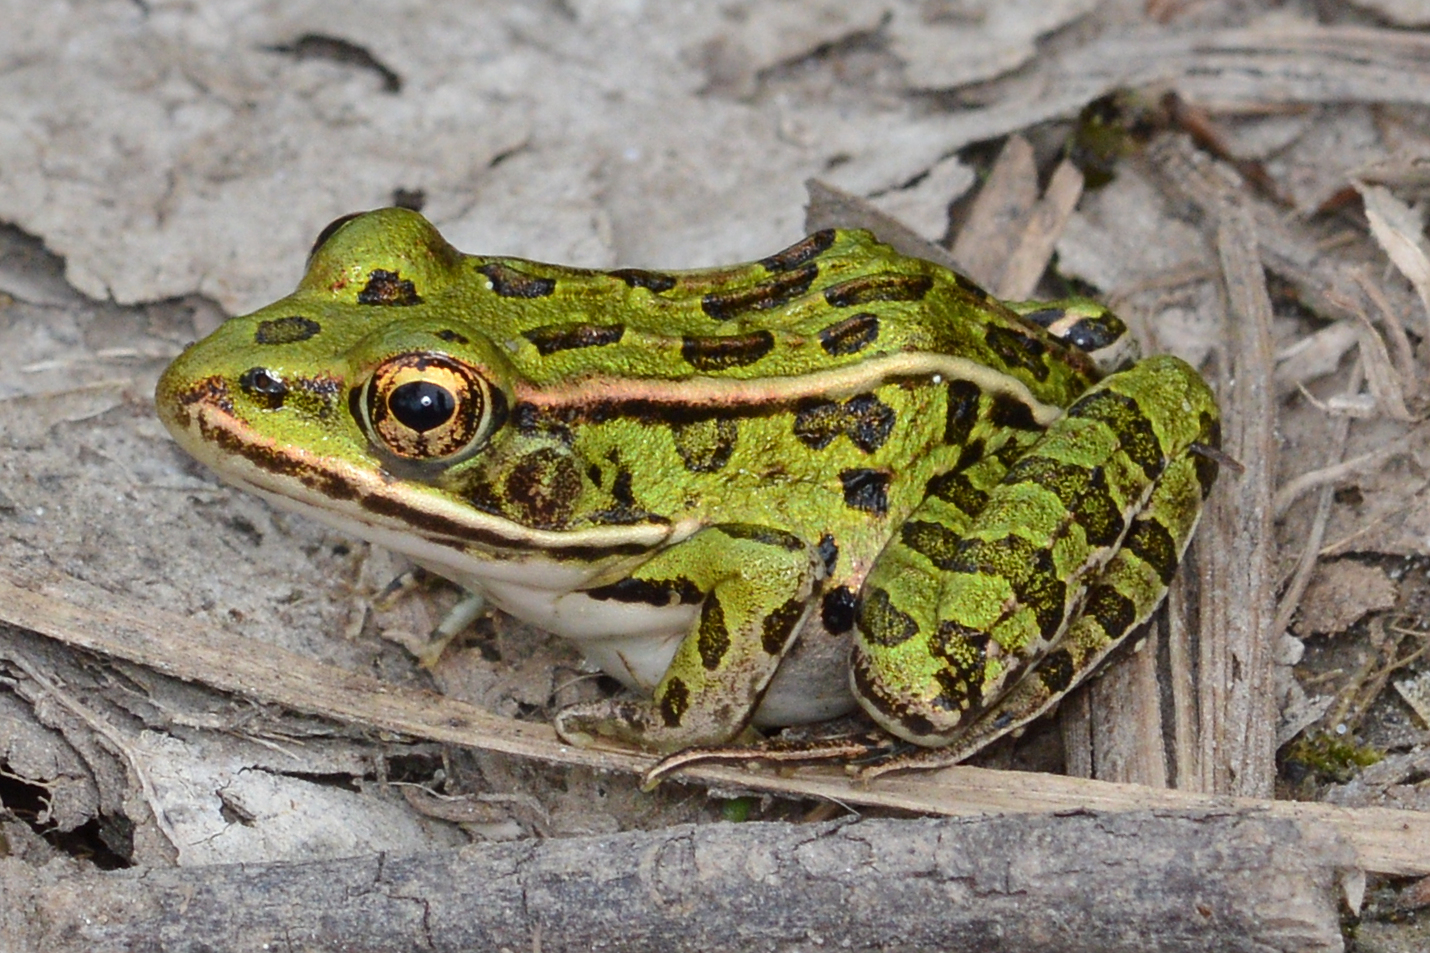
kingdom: Animalia
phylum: Chordata
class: Amphibia
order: Anura
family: Ranidae
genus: Lithobates
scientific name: Lithobates pipiens
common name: Northern leopard frog
